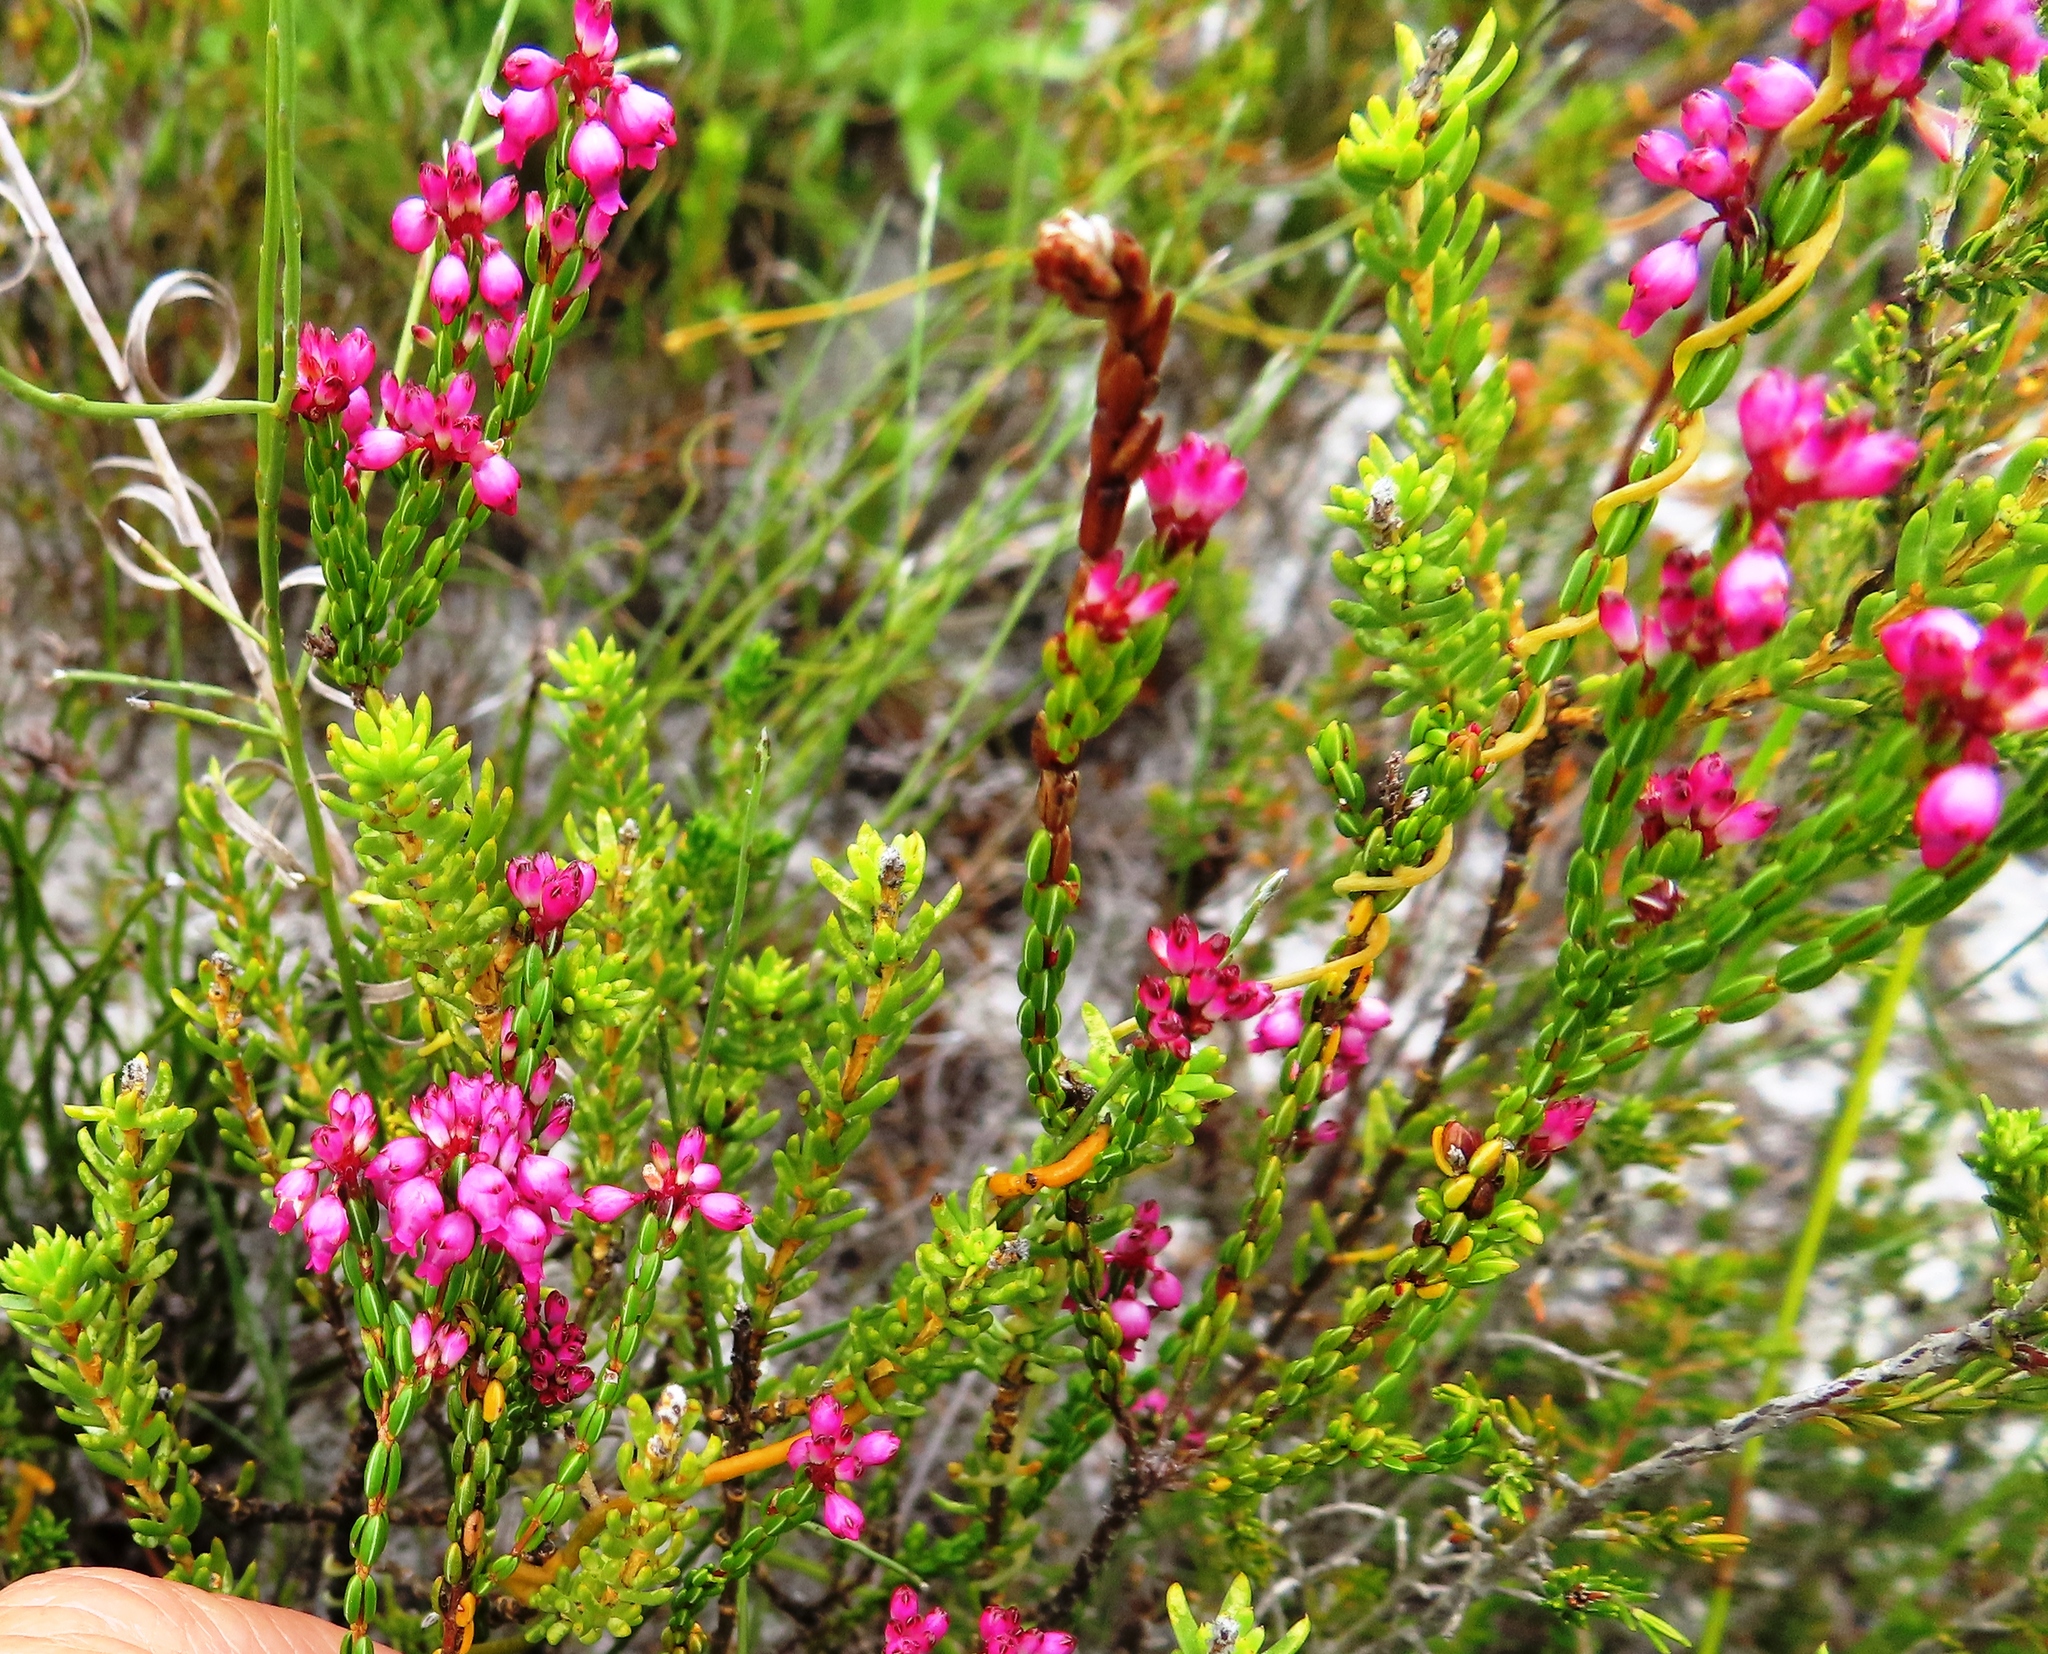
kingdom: Plantae
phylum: Tracheophyta
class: Magnoliopsida
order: Ericales
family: Ericaceae
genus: Erica
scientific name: Erica rhopalantha
